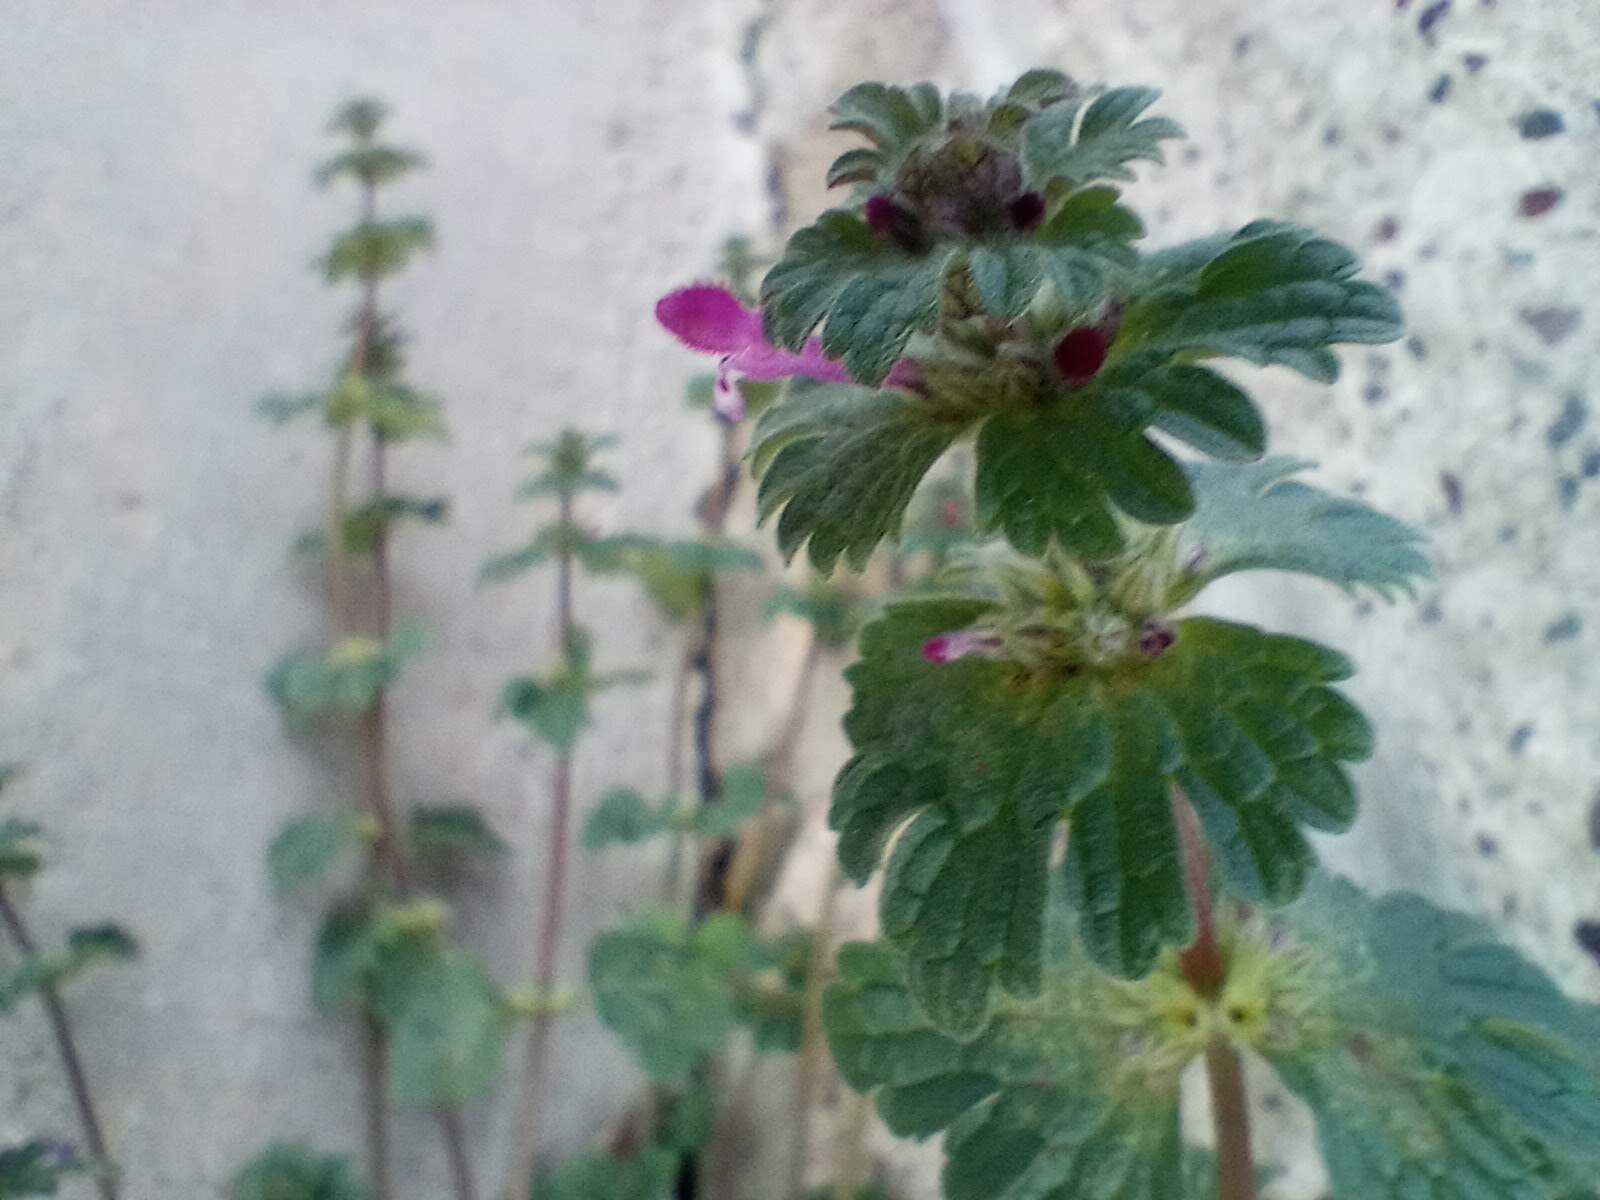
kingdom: Plantae
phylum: Tracheophyta
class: Magnoliopsida
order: Lamiales
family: Lamiaceae
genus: Lamium
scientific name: Lamium amplexicaule
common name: Henbit dead-nettle
